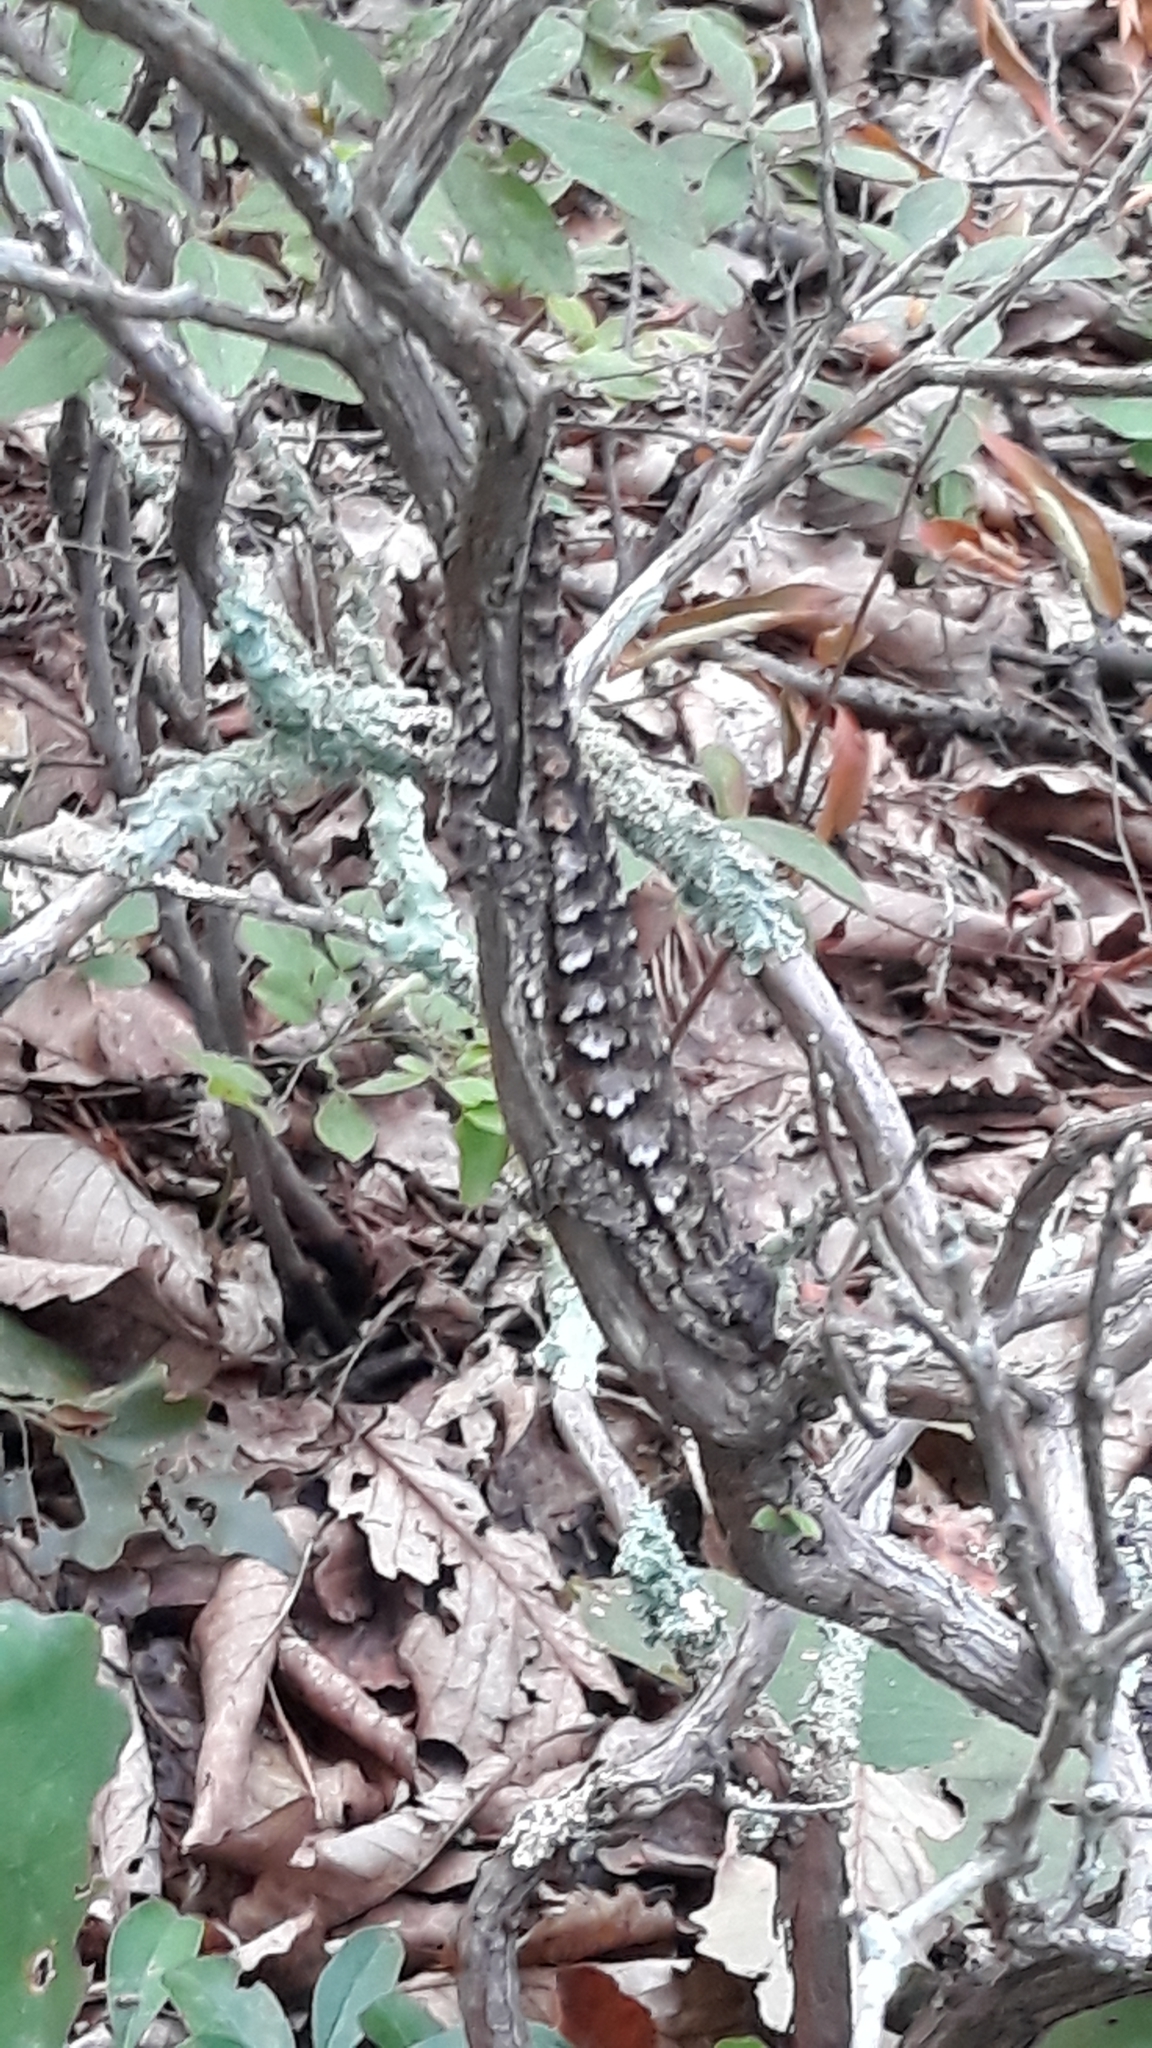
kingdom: Animalia
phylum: Chordata
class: Squamata
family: Phrynosomatidae
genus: Sceloporus
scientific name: Sceloporus undulatus
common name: Eastern fence lizard
